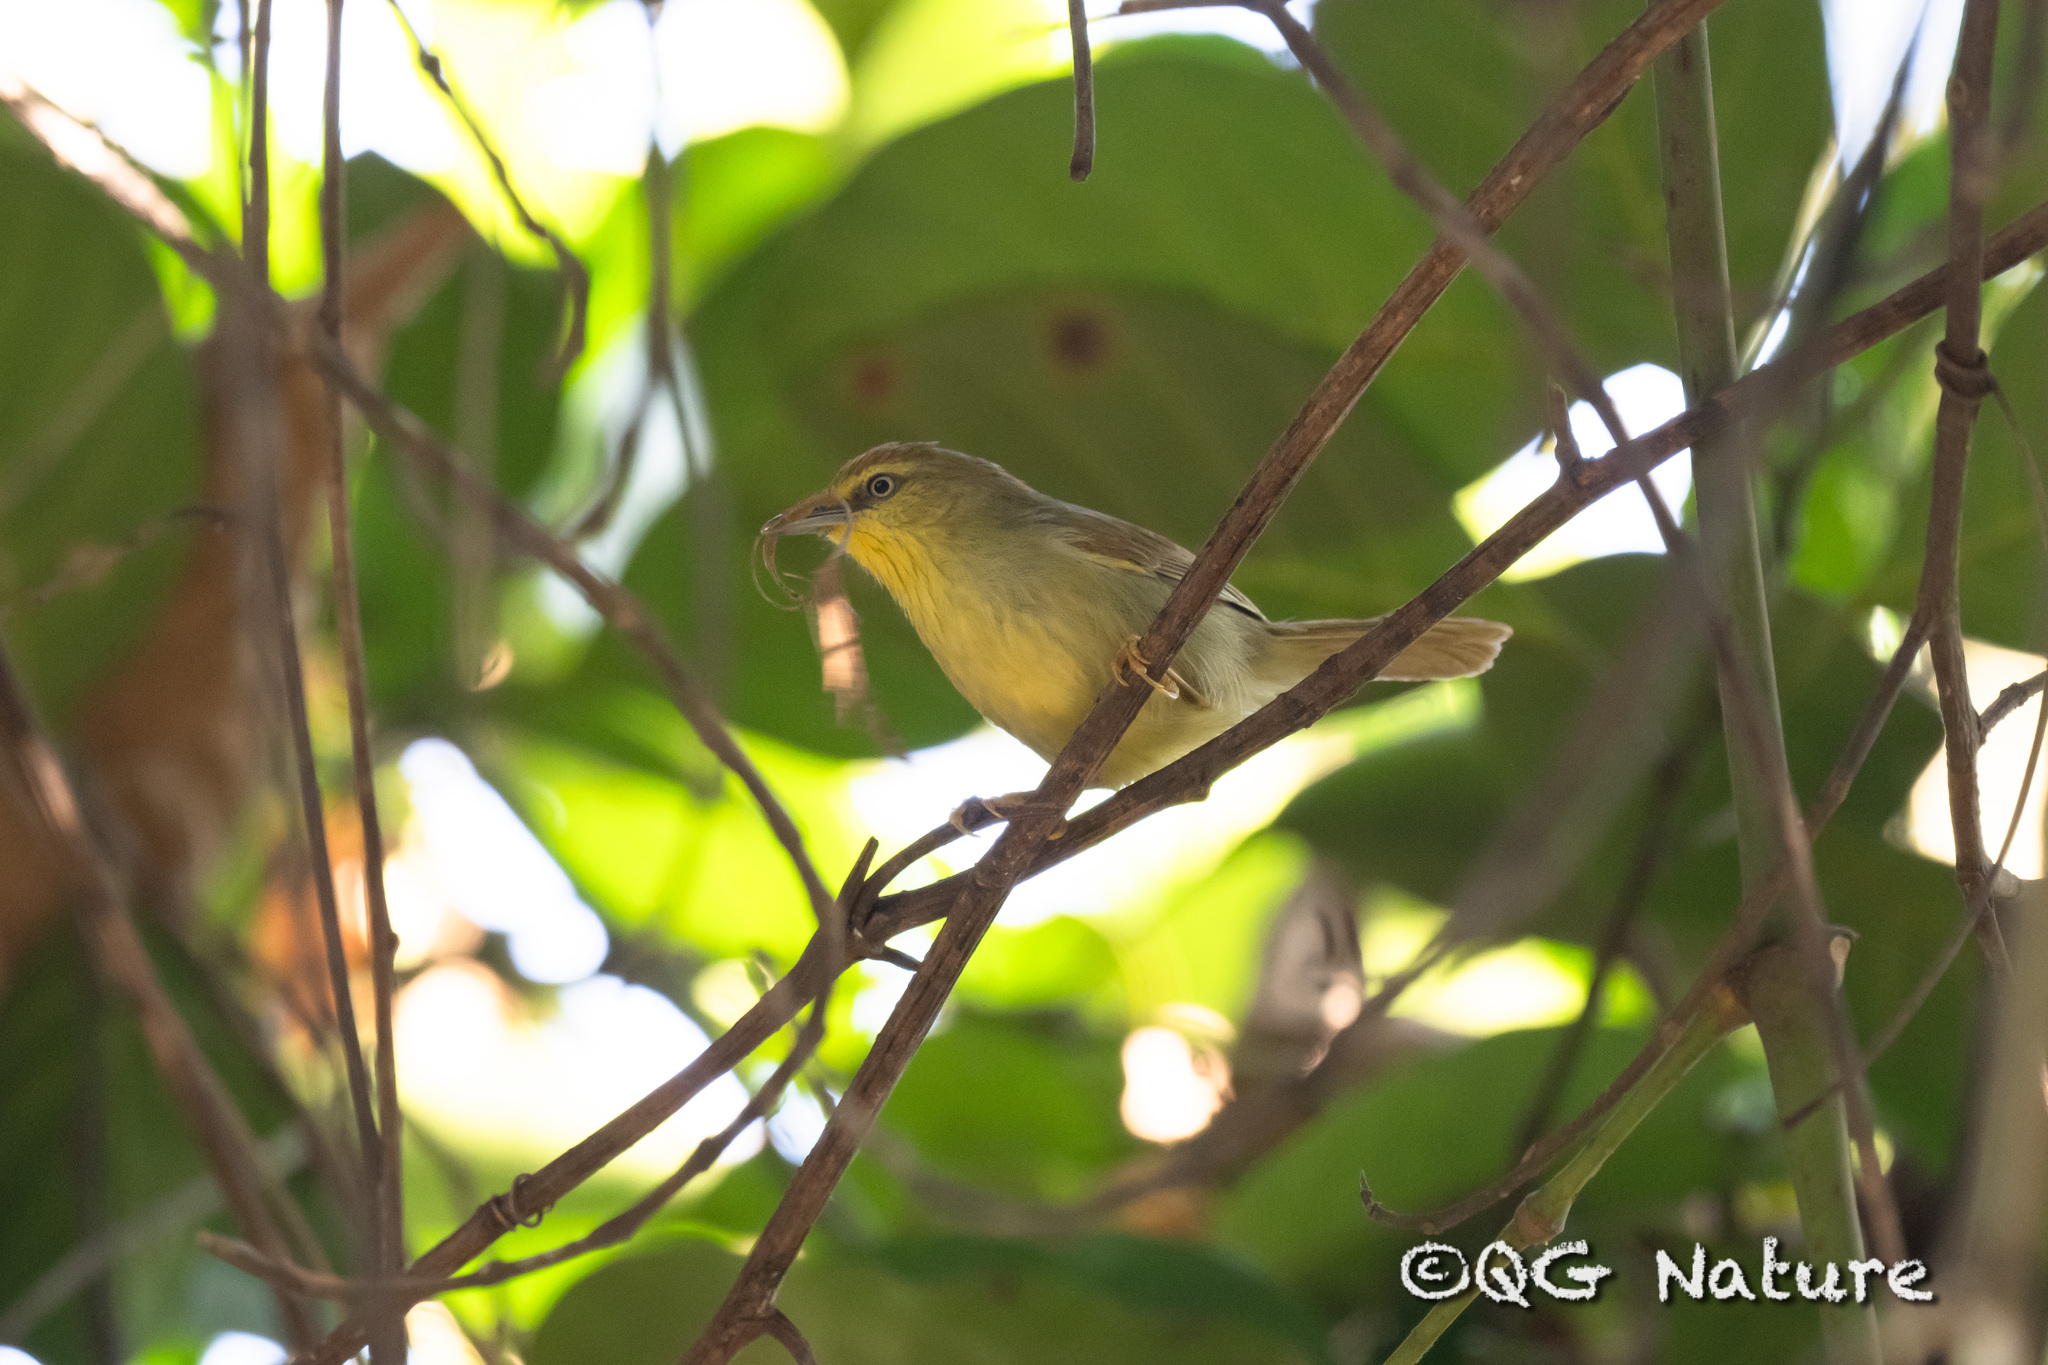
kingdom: Animalia
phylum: Chordata
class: Aves
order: Passeriformes
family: Timaliidae
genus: Macronus
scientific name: Macronus gularis
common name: Striped tit-babbler
